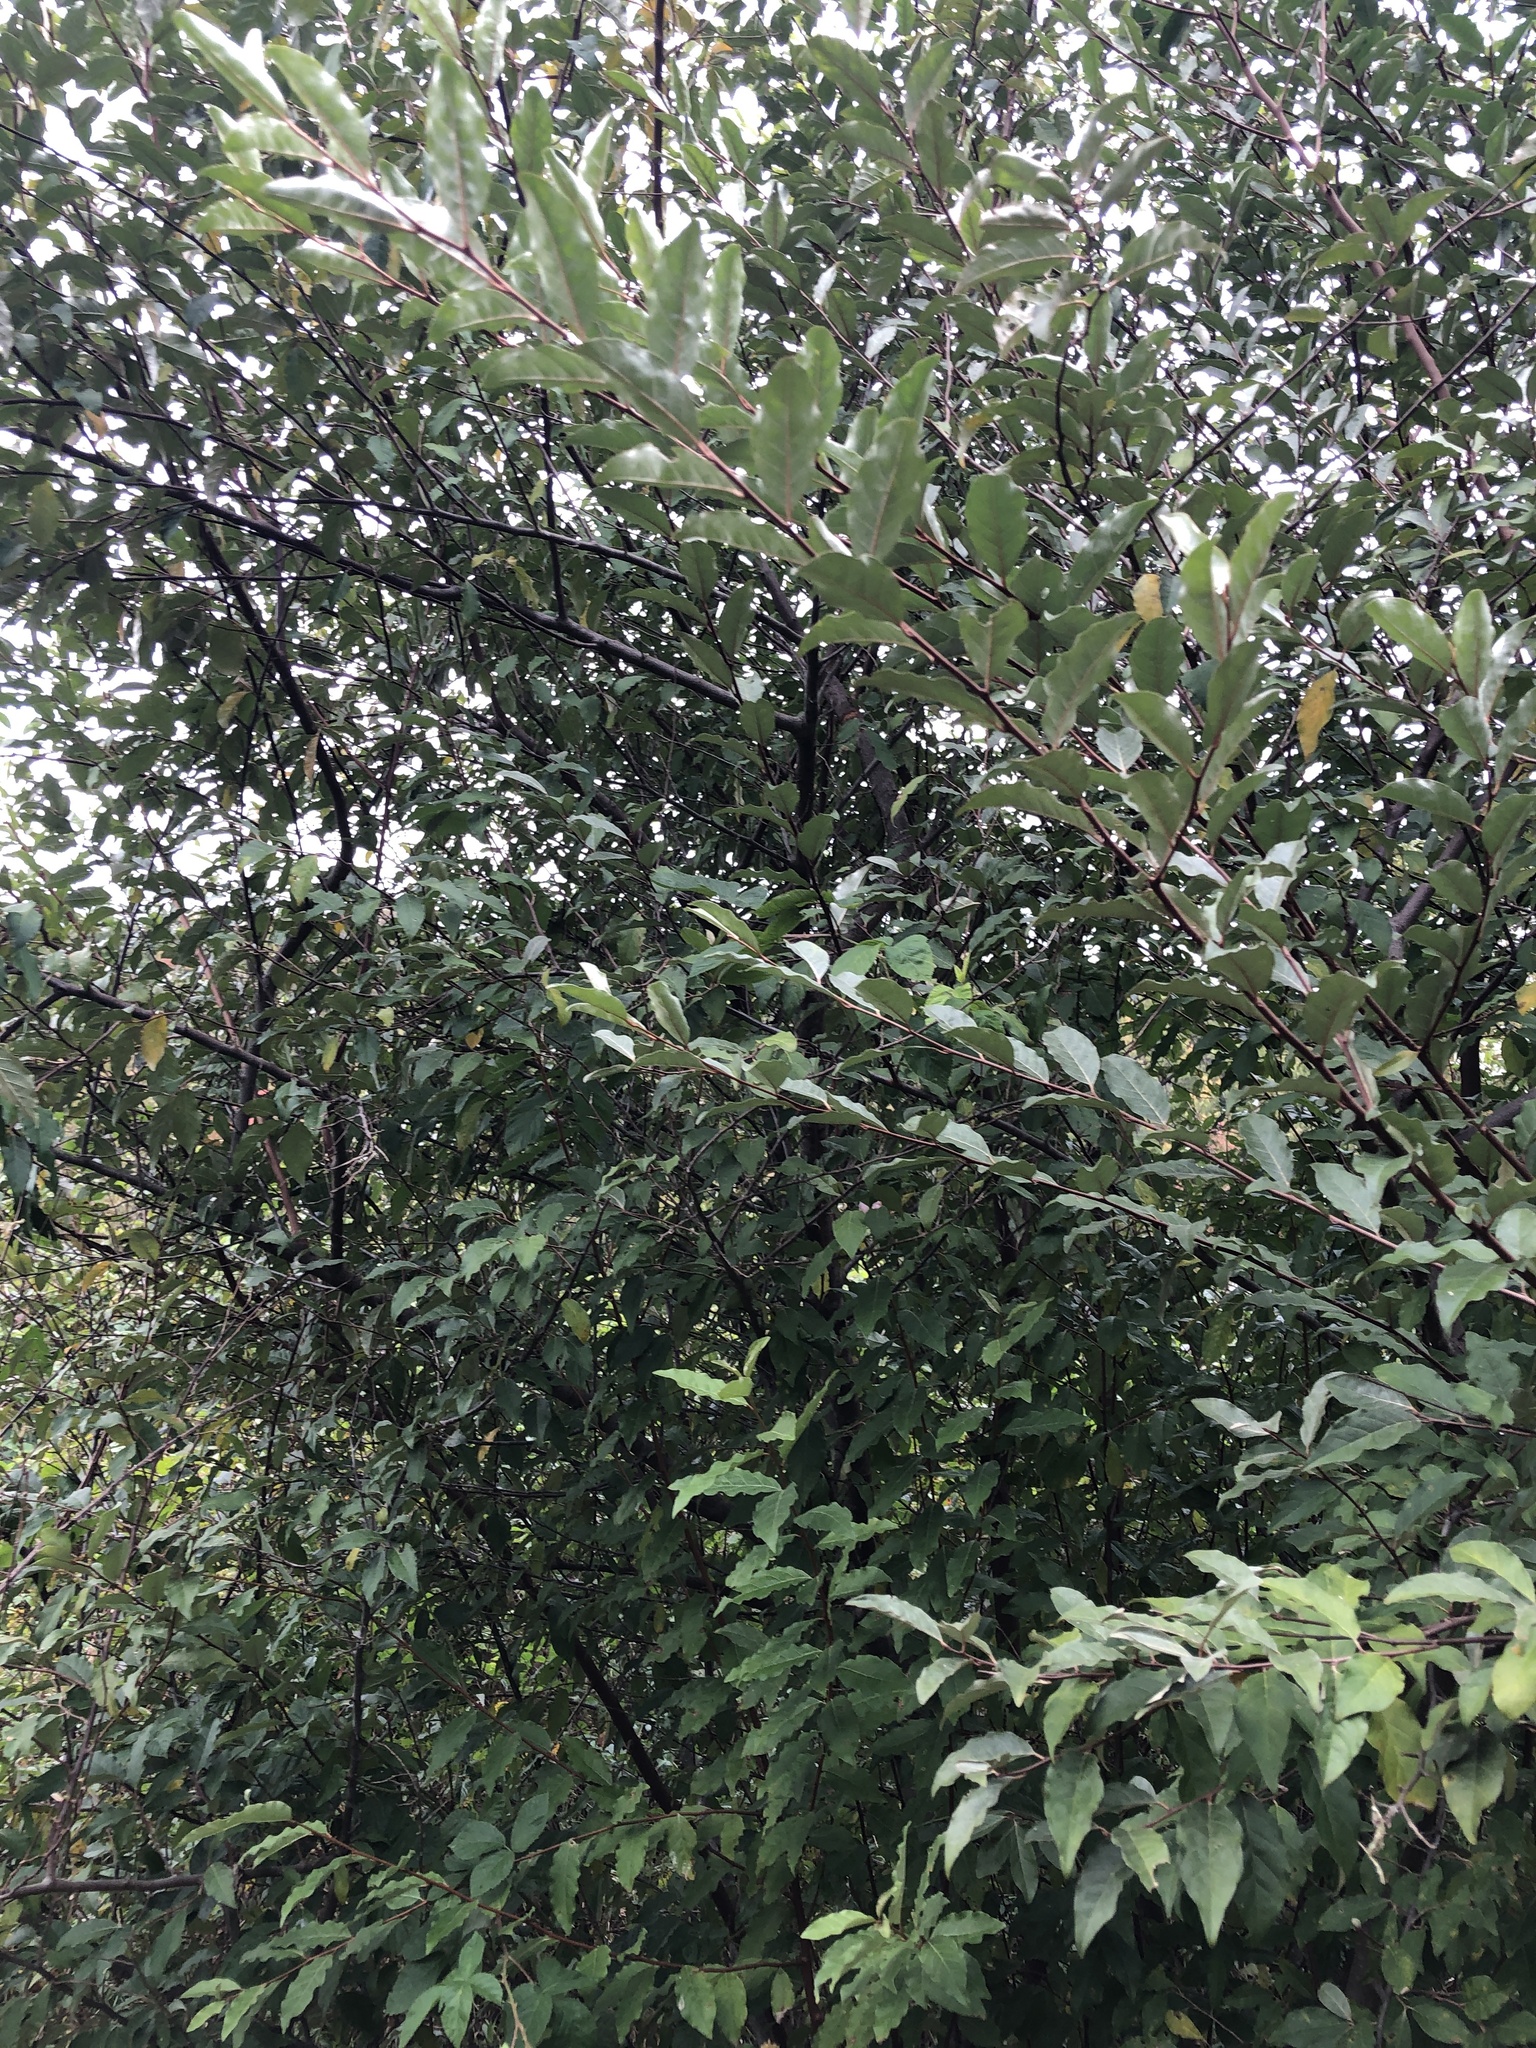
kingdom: Plantae
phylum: Tracheophyta
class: Magnoliopsida
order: Rosales
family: Elaeagnaceae
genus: Elaeagnus
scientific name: Elaeagnus umbellata
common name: Autumn olive
